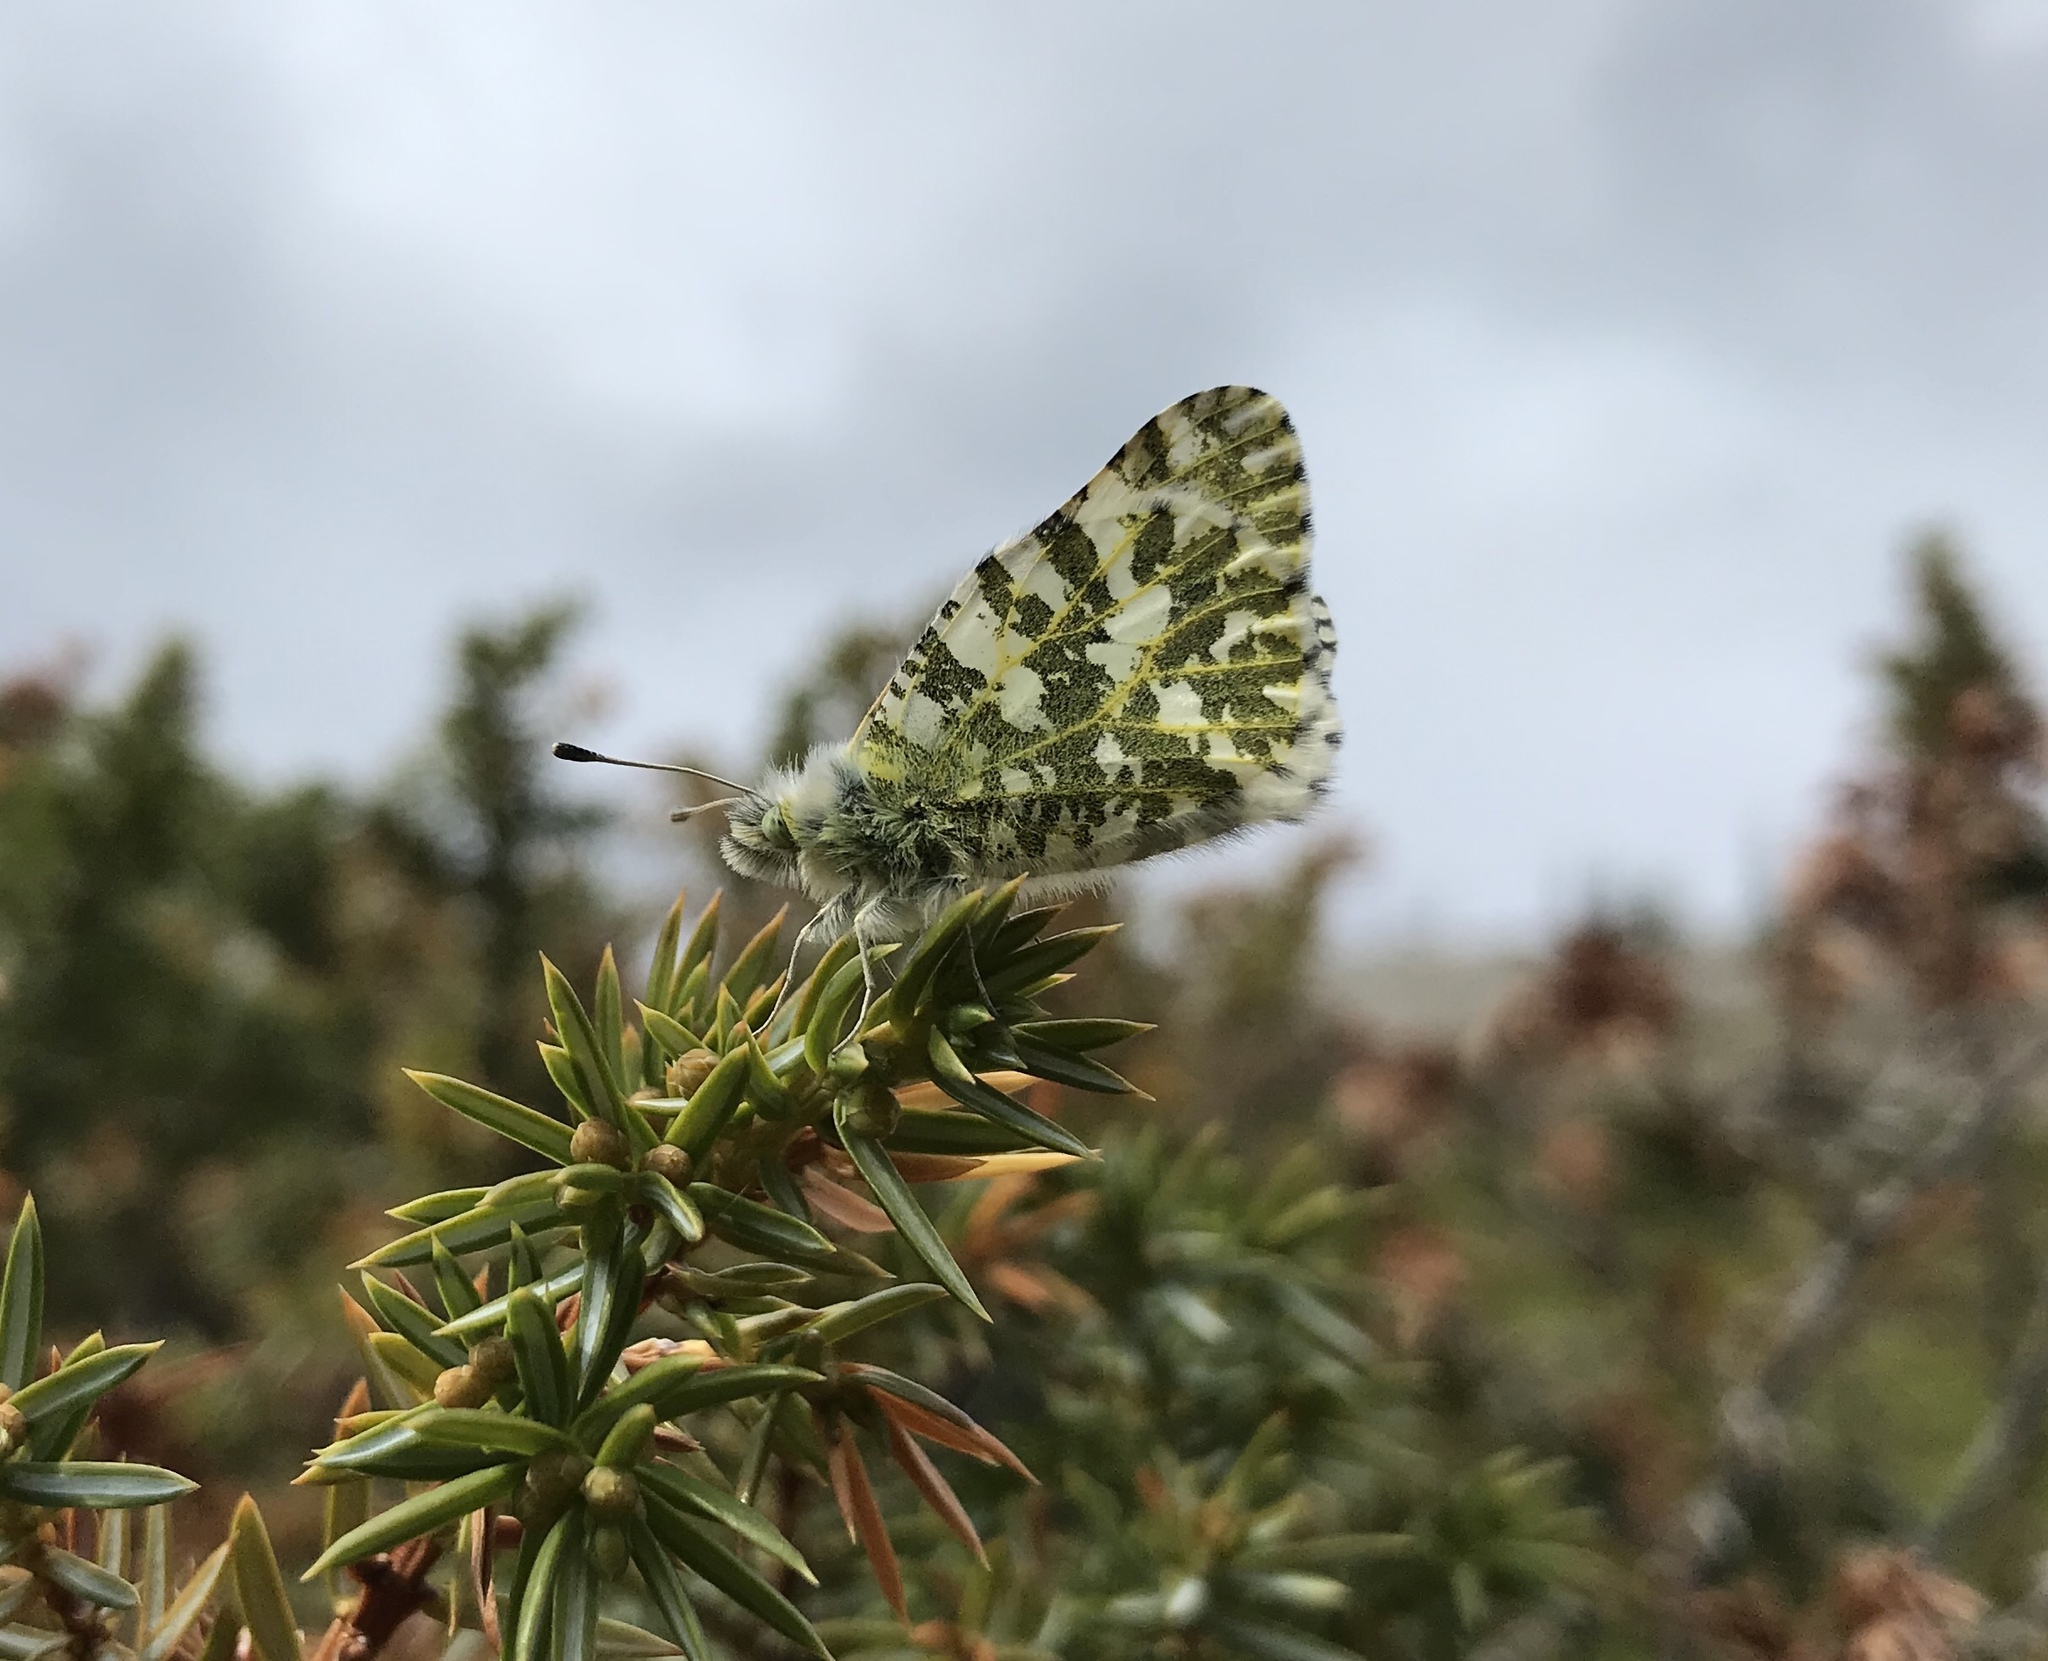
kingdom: Animalia
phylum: Arthropoda
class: Insecta
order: Lepidoptera
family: Pieridae
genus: Euchloe
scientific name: Euchloe ausonides
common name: Creamy marblewing
